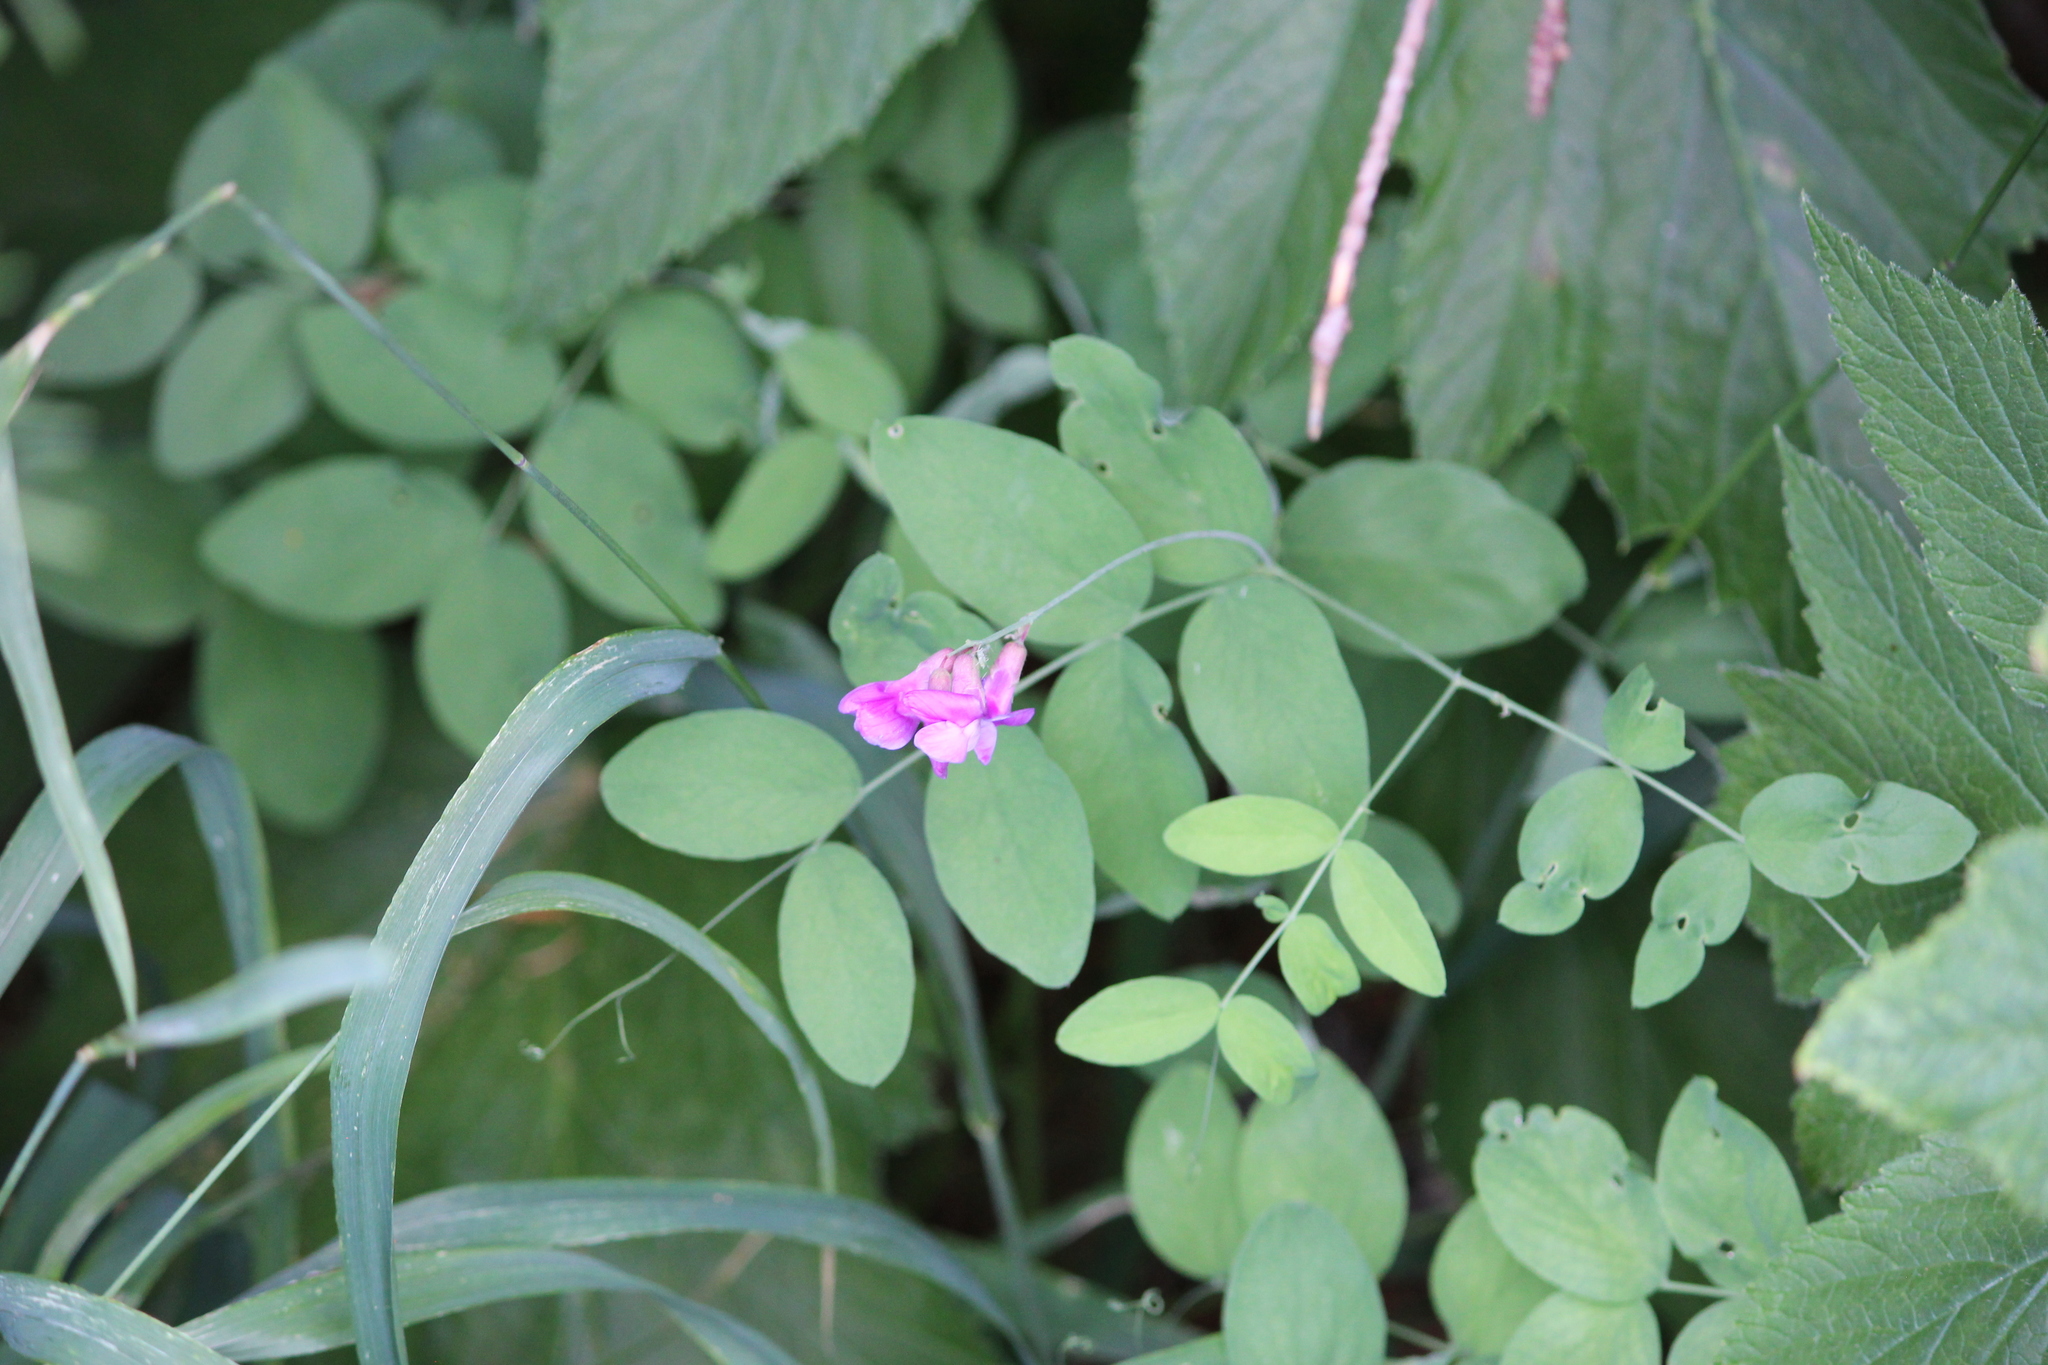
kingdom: Plantae
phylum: Tracheophyta
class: Magnoliopsida
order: Fabales
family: Fabaceae
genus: Lathyrus
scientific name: Lathyrus nevadensis
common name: Sierra nevada peavine
